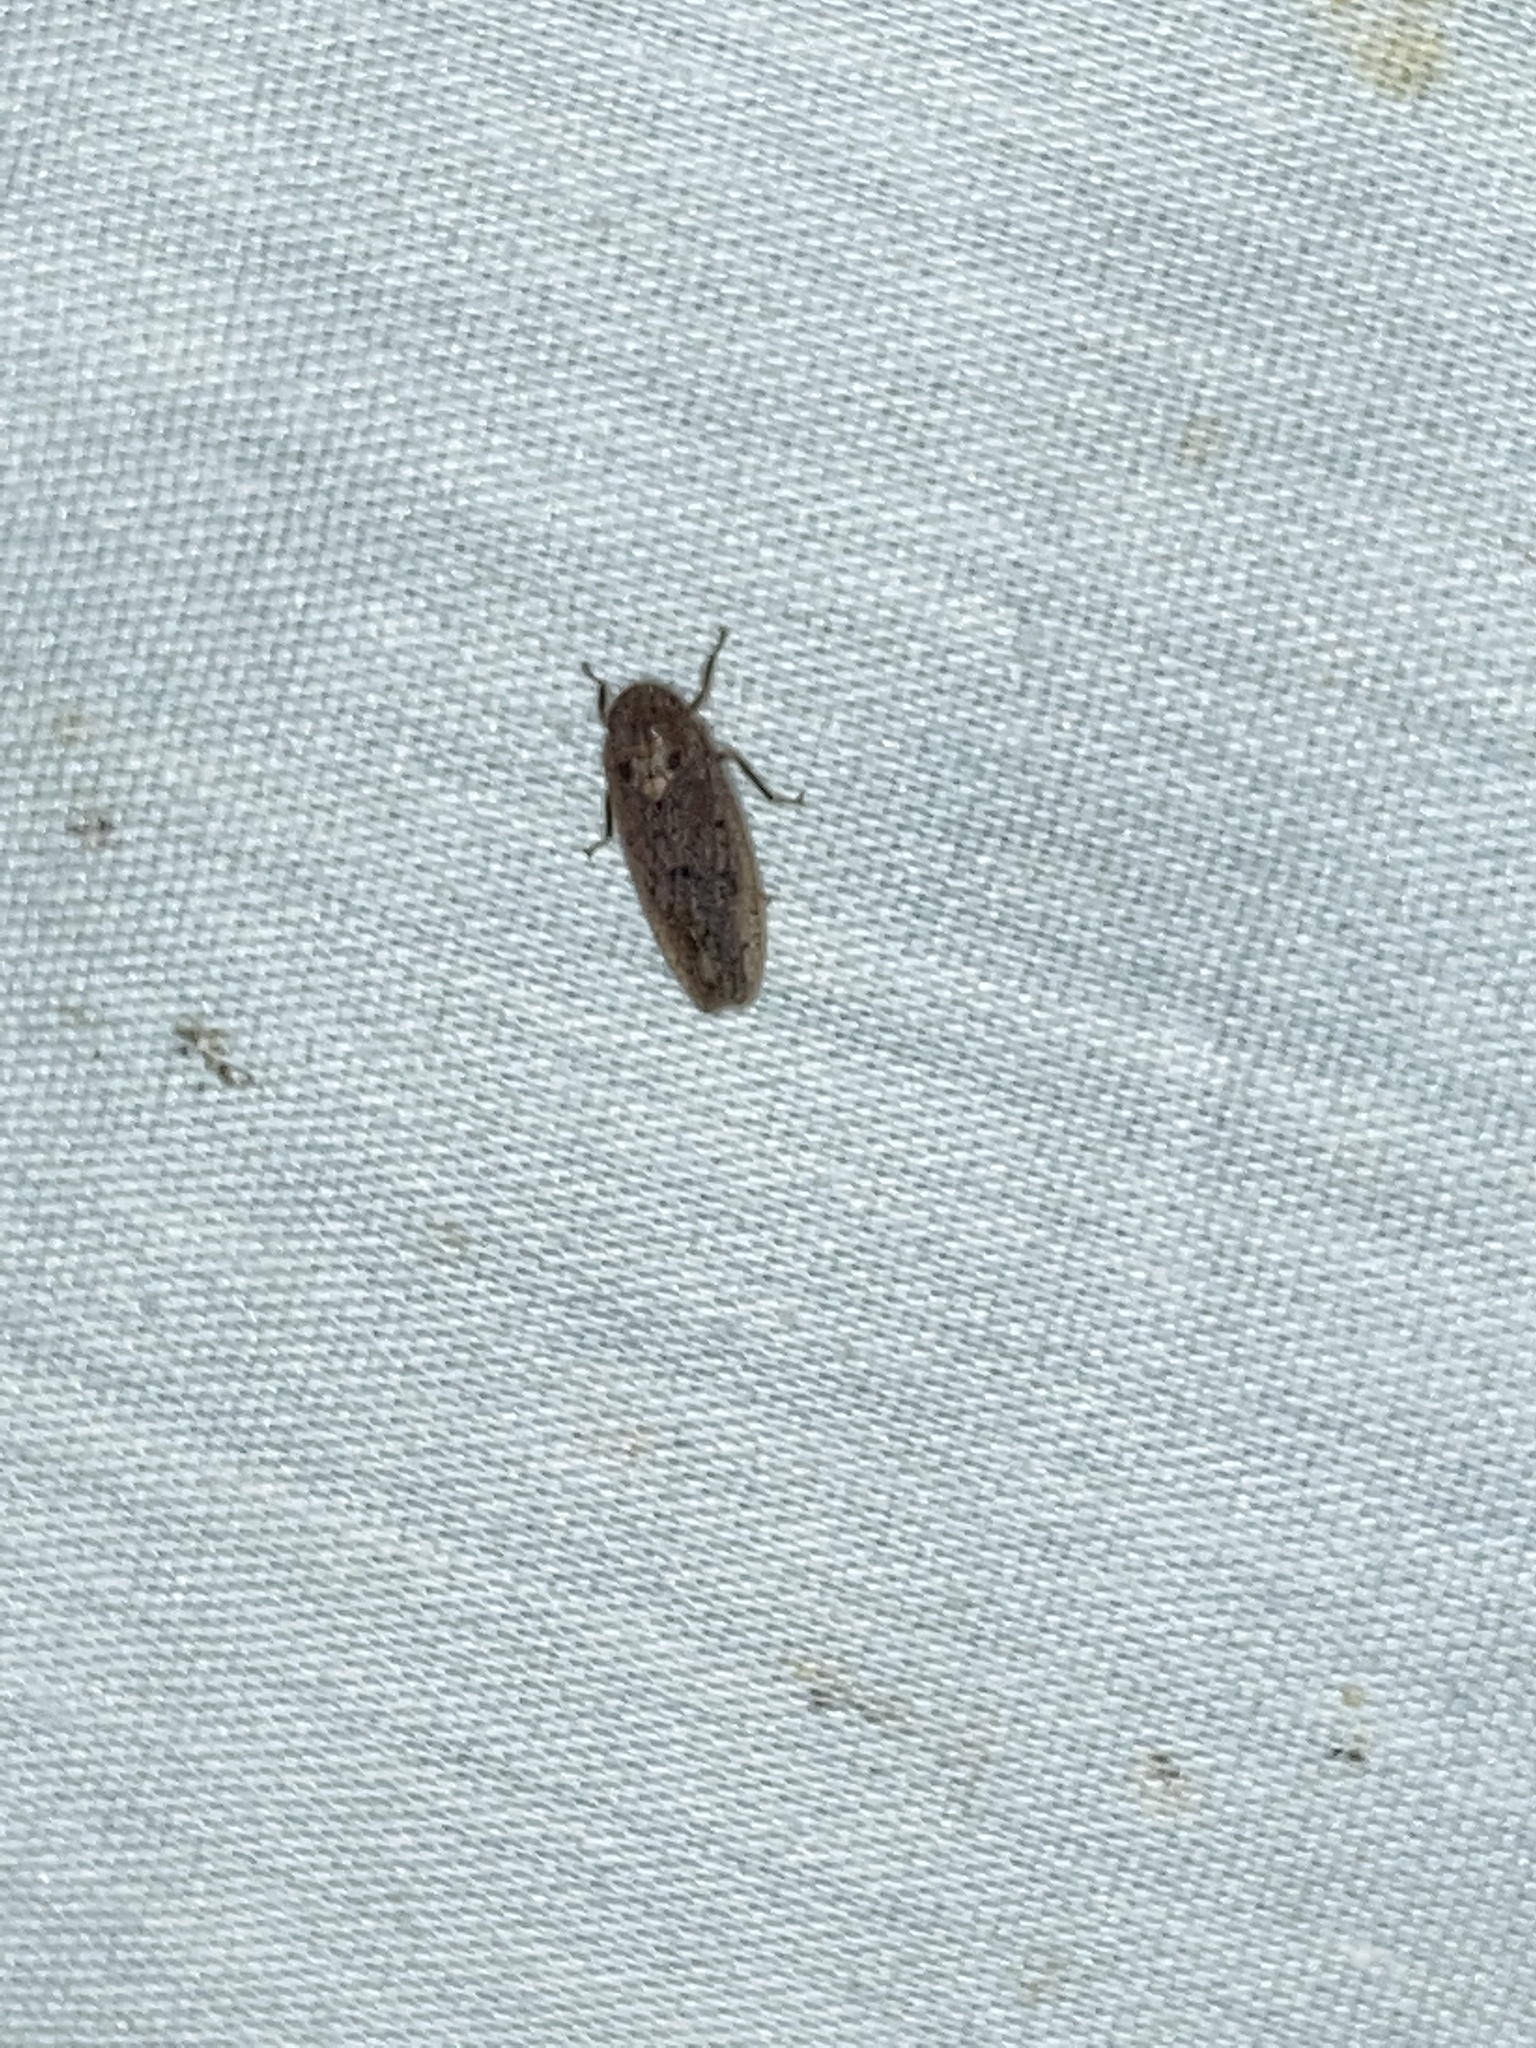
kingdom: Animalia
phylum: Arthropoda
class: Insecta
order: Hemiptera
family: Cicadellidae
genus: Ponana
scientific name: Ponana puncticollis
